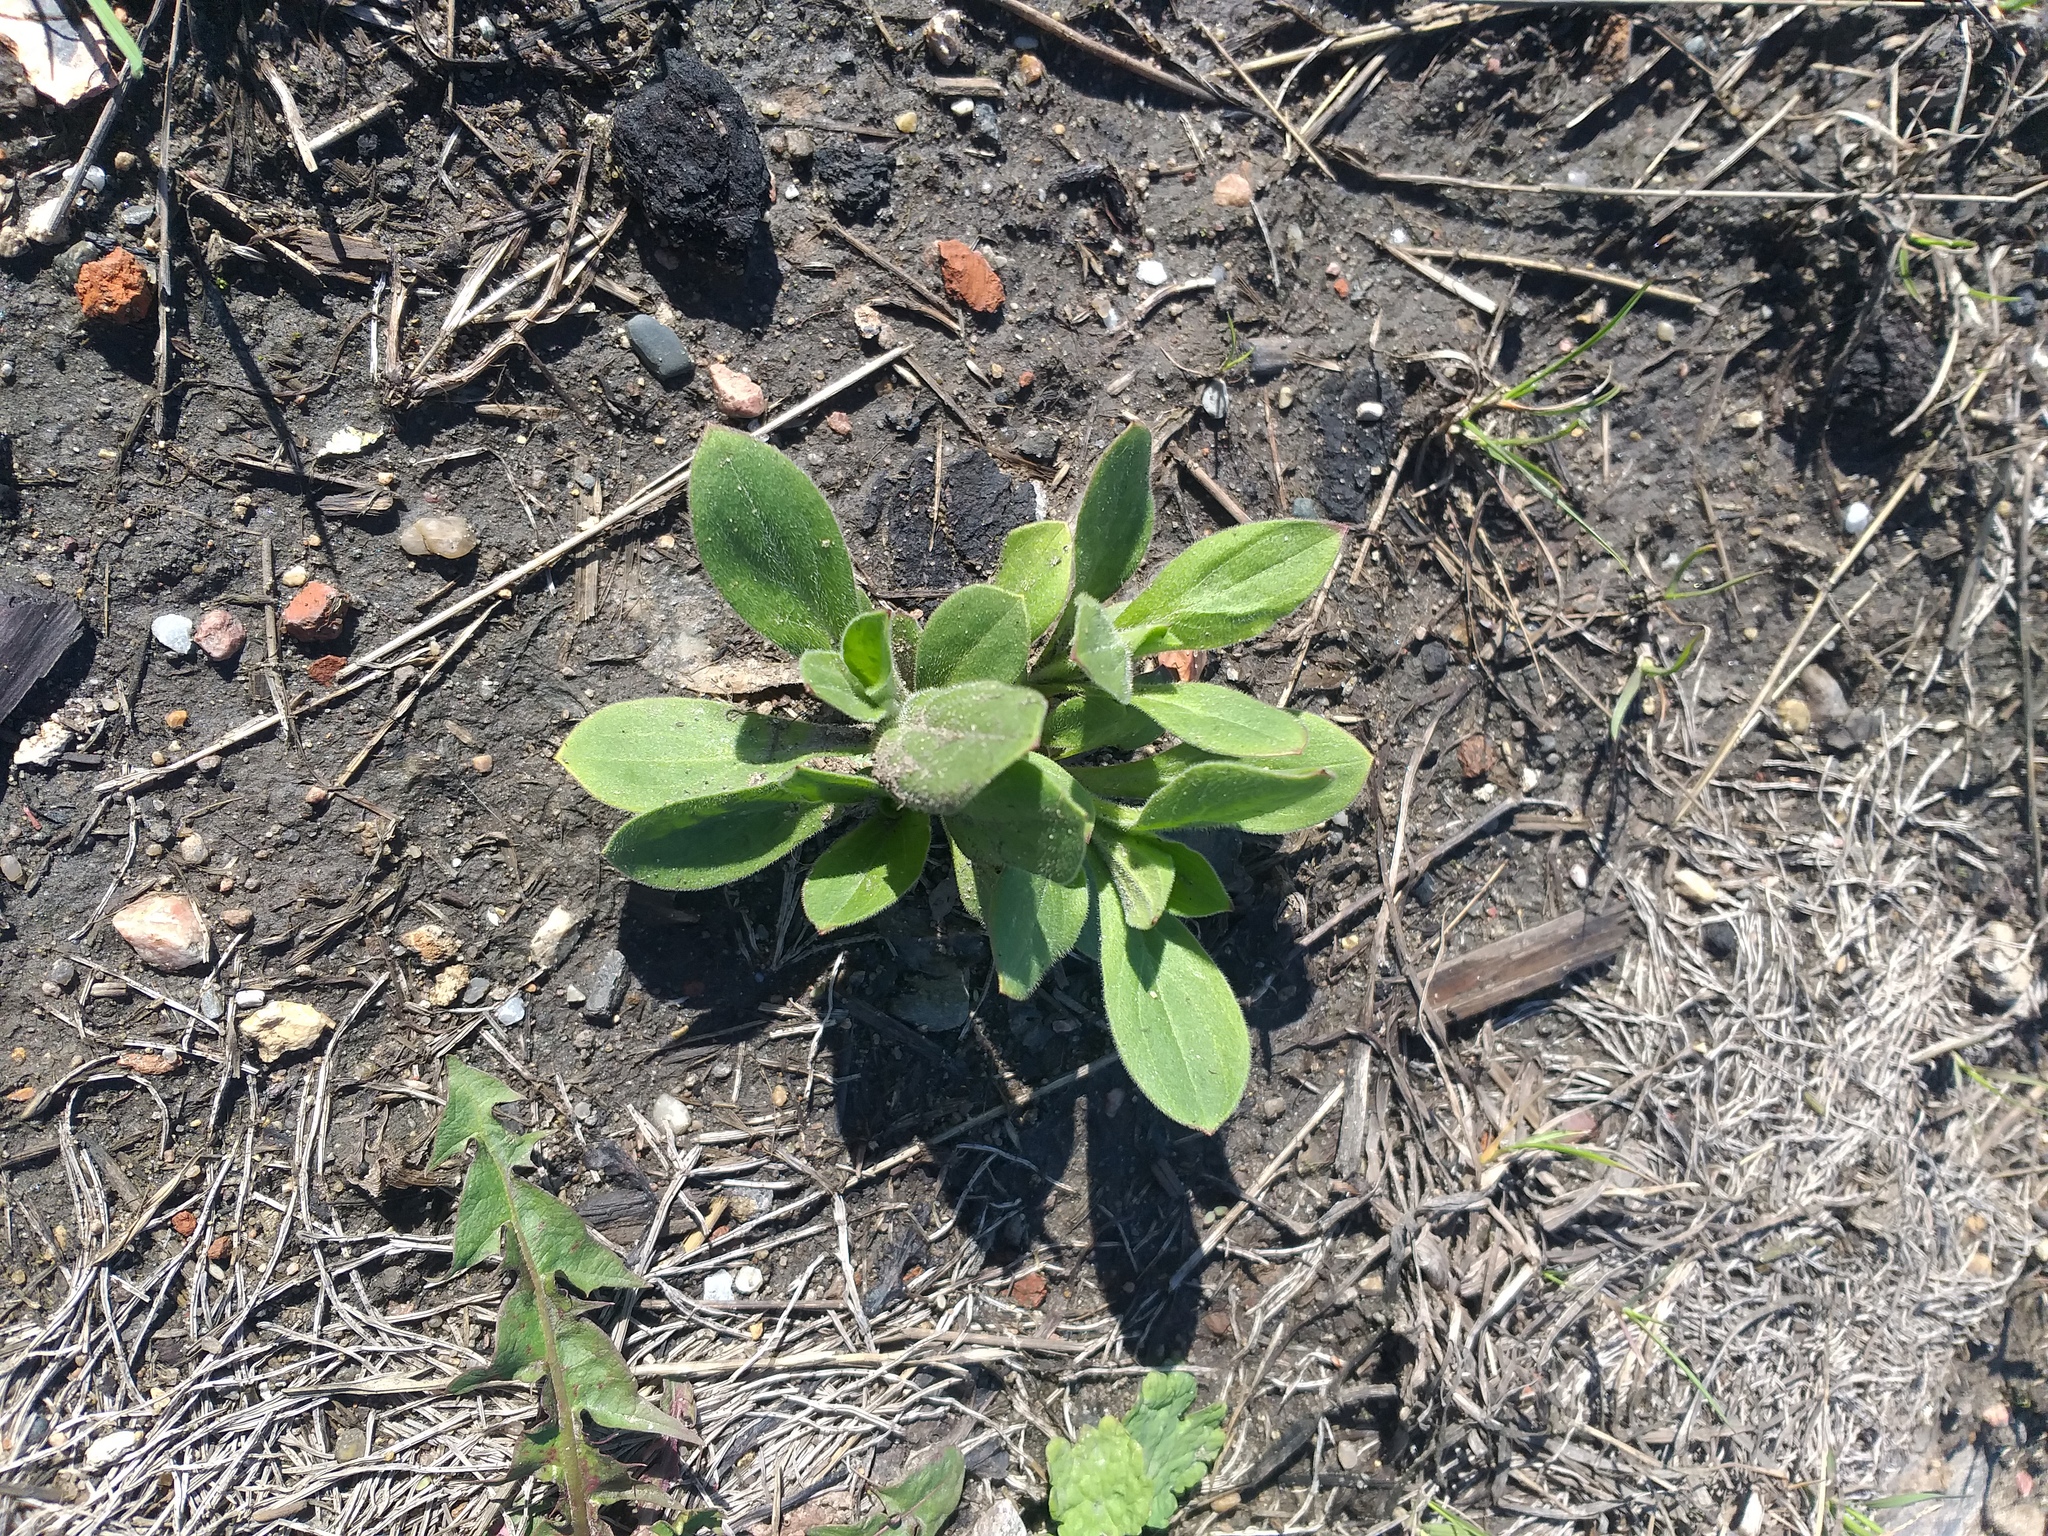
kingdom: Plantae
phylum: Tracheophyta
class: Magnoliopsida
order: Caryophyllales
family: Caryophyllaceae
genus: Silene
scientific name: Silene latifolia
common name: White campion
